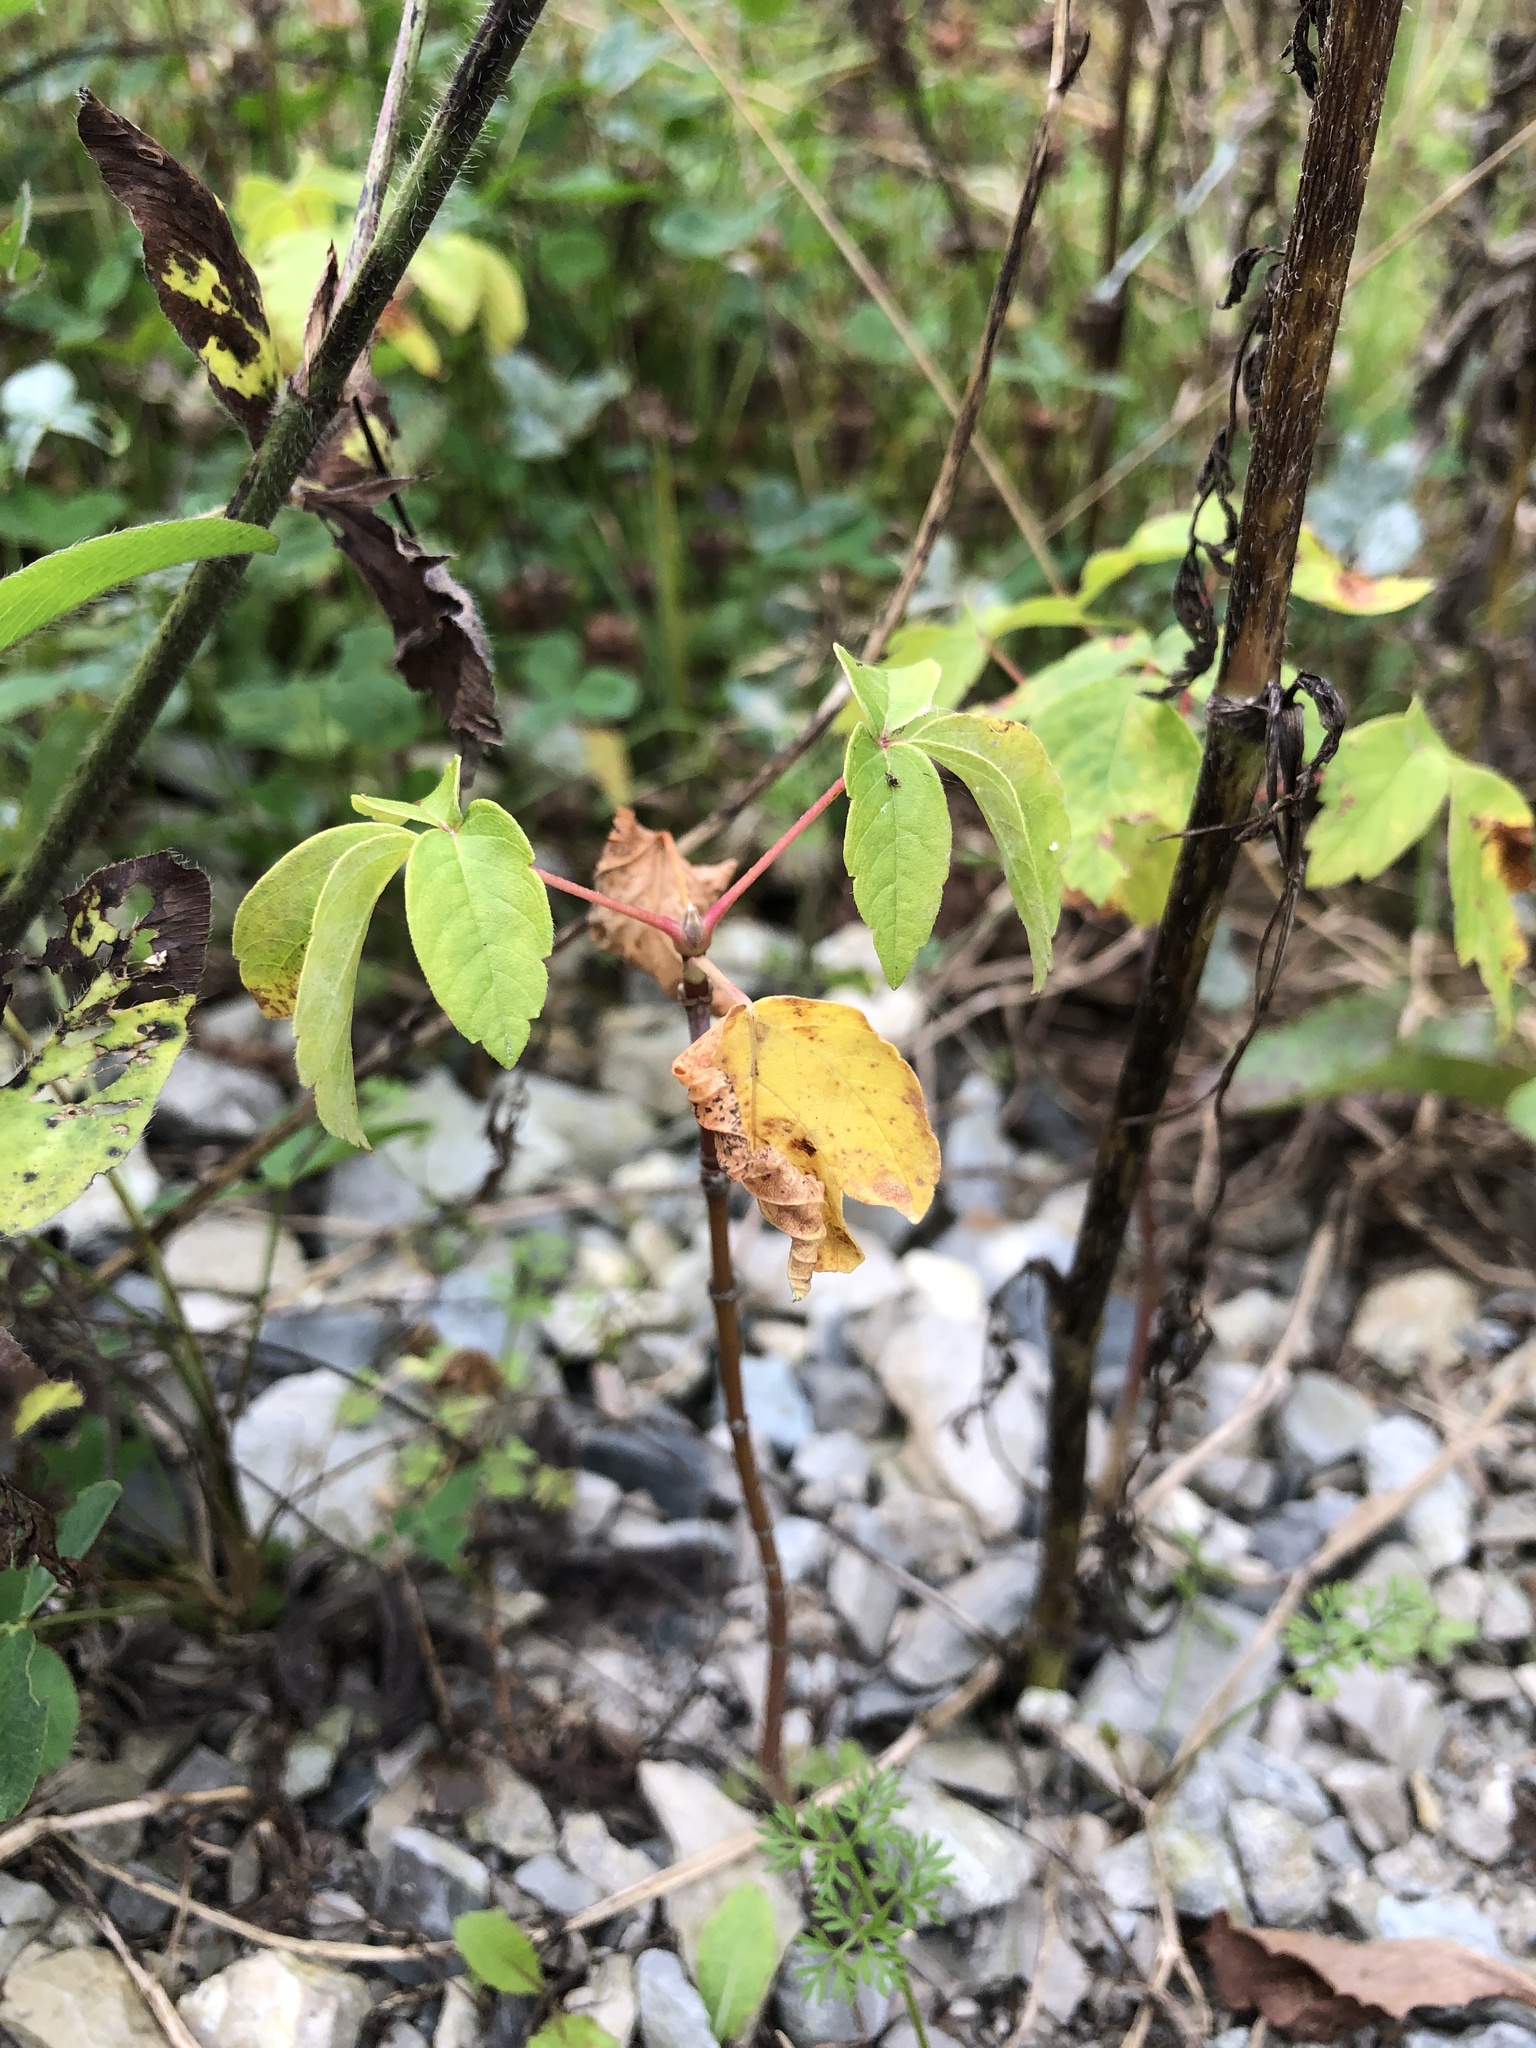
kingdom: Plantae
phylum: Tracheophyta
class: Magnoliopsida
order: Sapindales
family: Sapindaceae
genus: Acer
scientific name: Acer negundo
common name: Ashleaf maple
